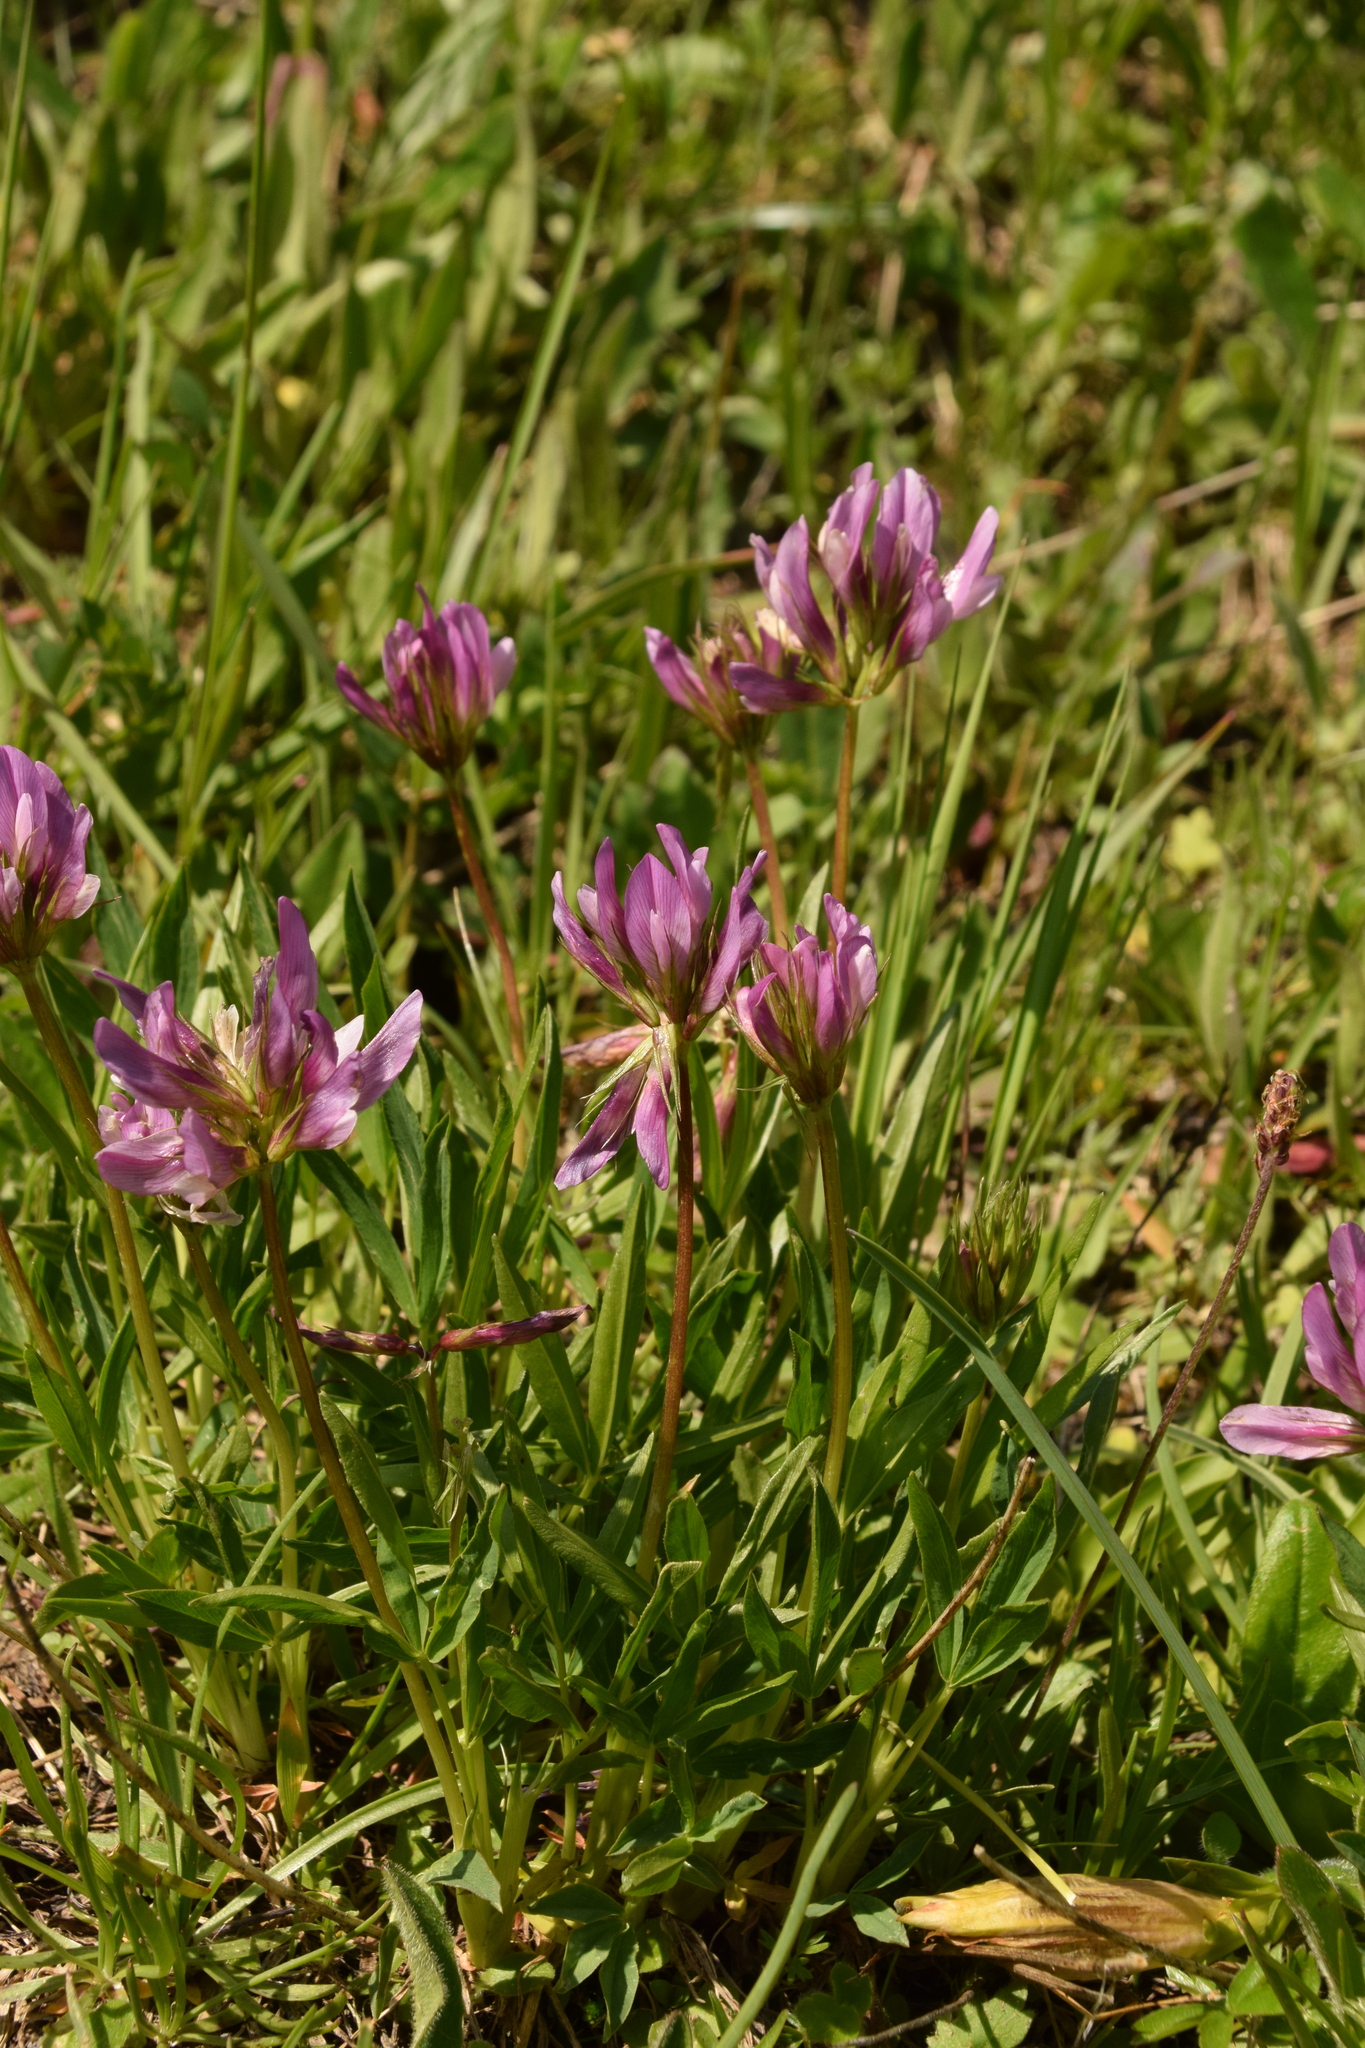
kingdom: Plantae
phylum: Tracheophyta
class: Magnoliopsida
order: Fabales
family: Fabaceae
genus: Trifolium
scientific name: Trifolium alpinum
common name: Alpine clover
